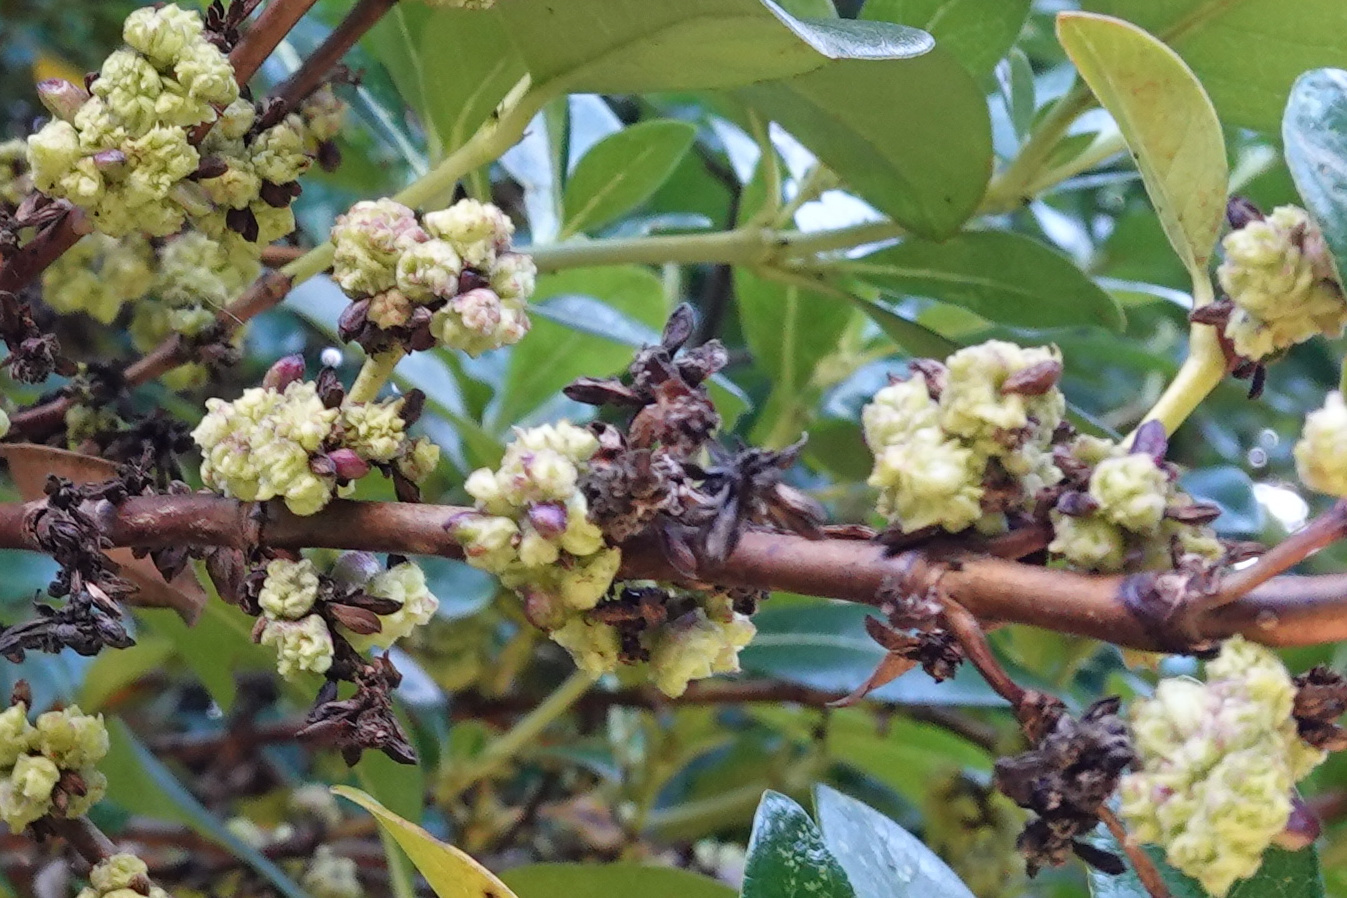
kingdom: Animalia
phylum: Arthropoda
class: Arachnida
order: Trombidiformes
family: Eriophyidae
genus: Acalitus
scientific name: Acalitus
